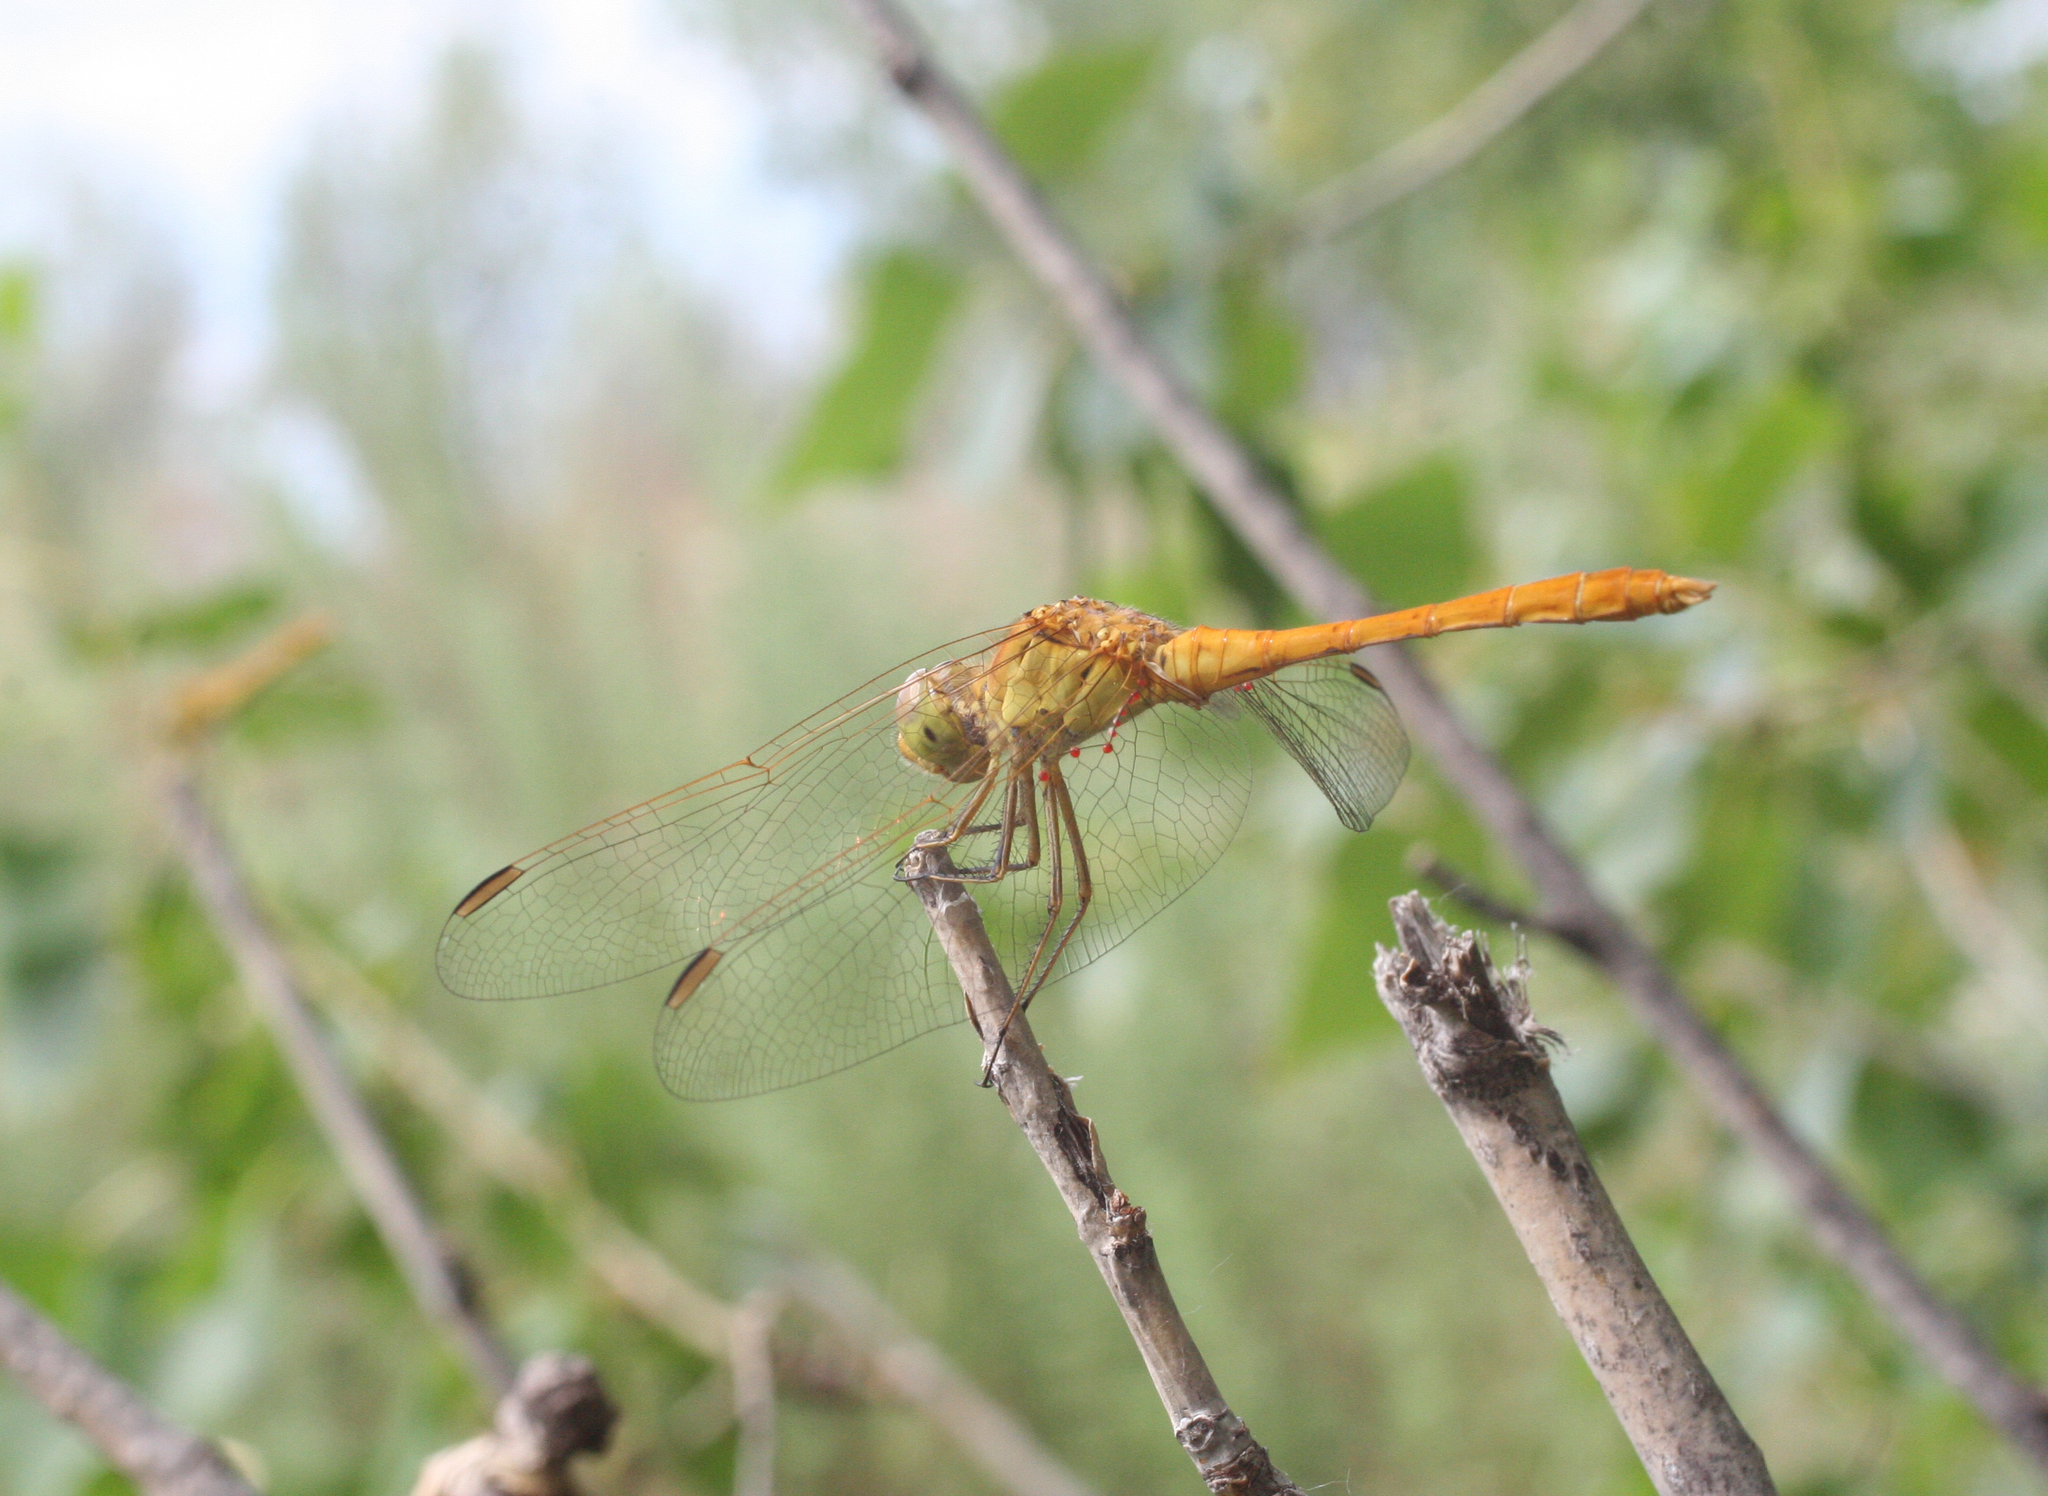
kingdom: Animalia
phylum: Arthropoda
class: Insecta
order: Odonata
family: Libellulidae
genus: Sympetrum
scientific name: Sympetrum meridionale
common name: Southern darter
